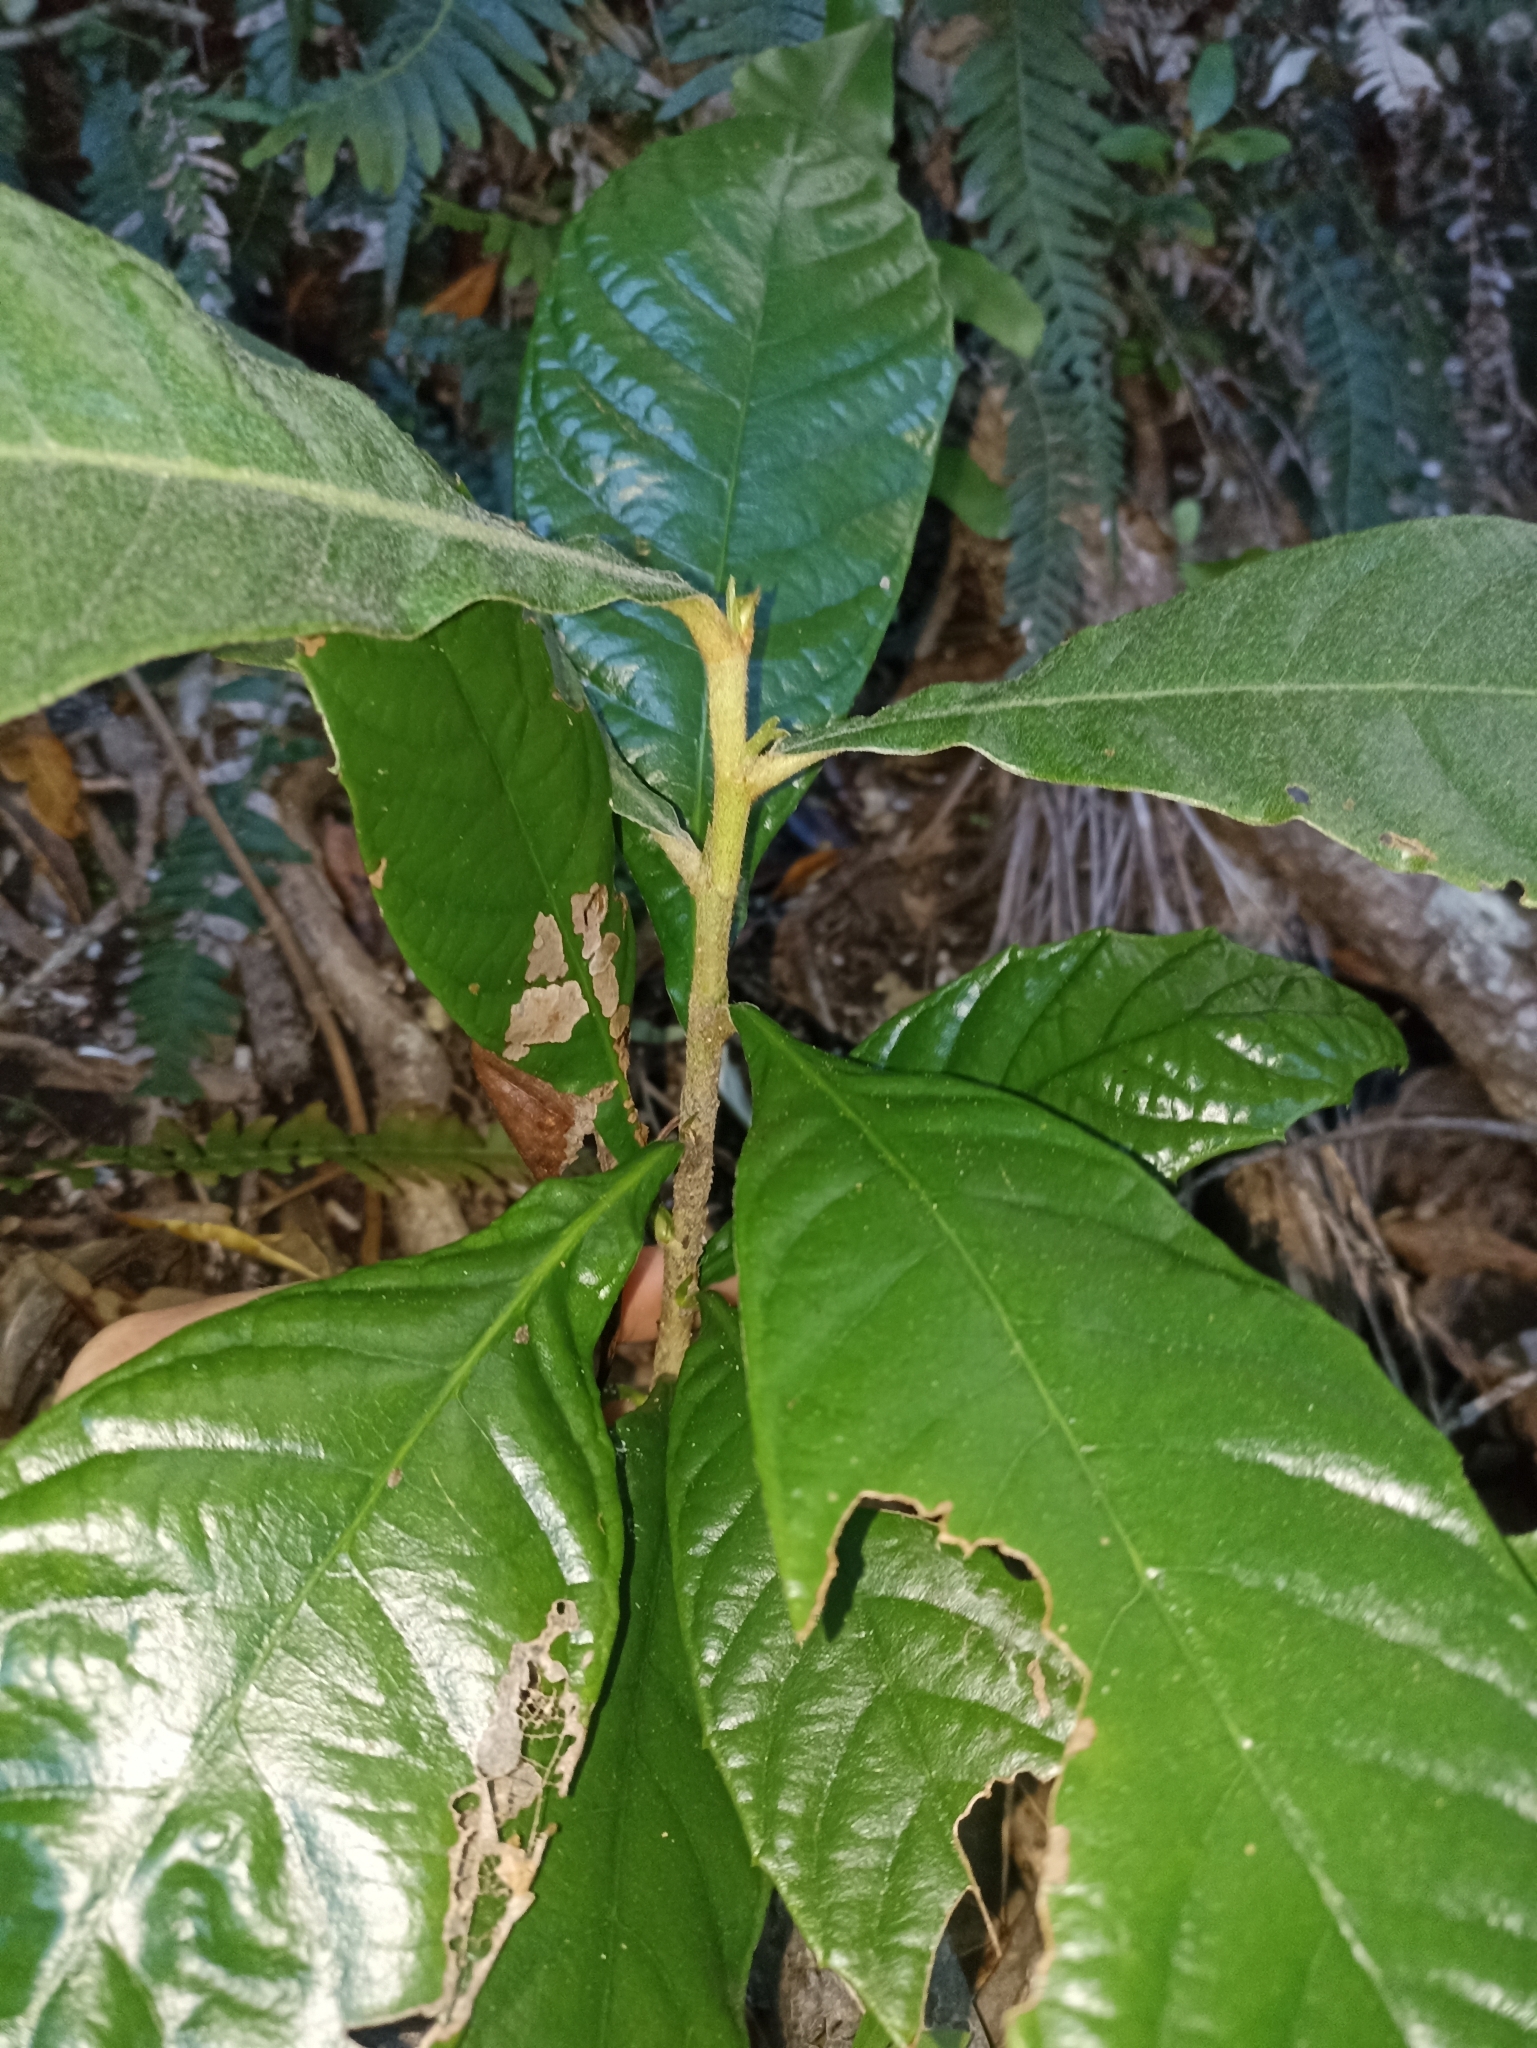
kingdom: Plantae
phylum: Tracheophyta
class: Magnoliopsida
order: Rosales
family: Rosaceae
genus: Rhaphiolepis
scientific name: Rhaphiolepis bibas
